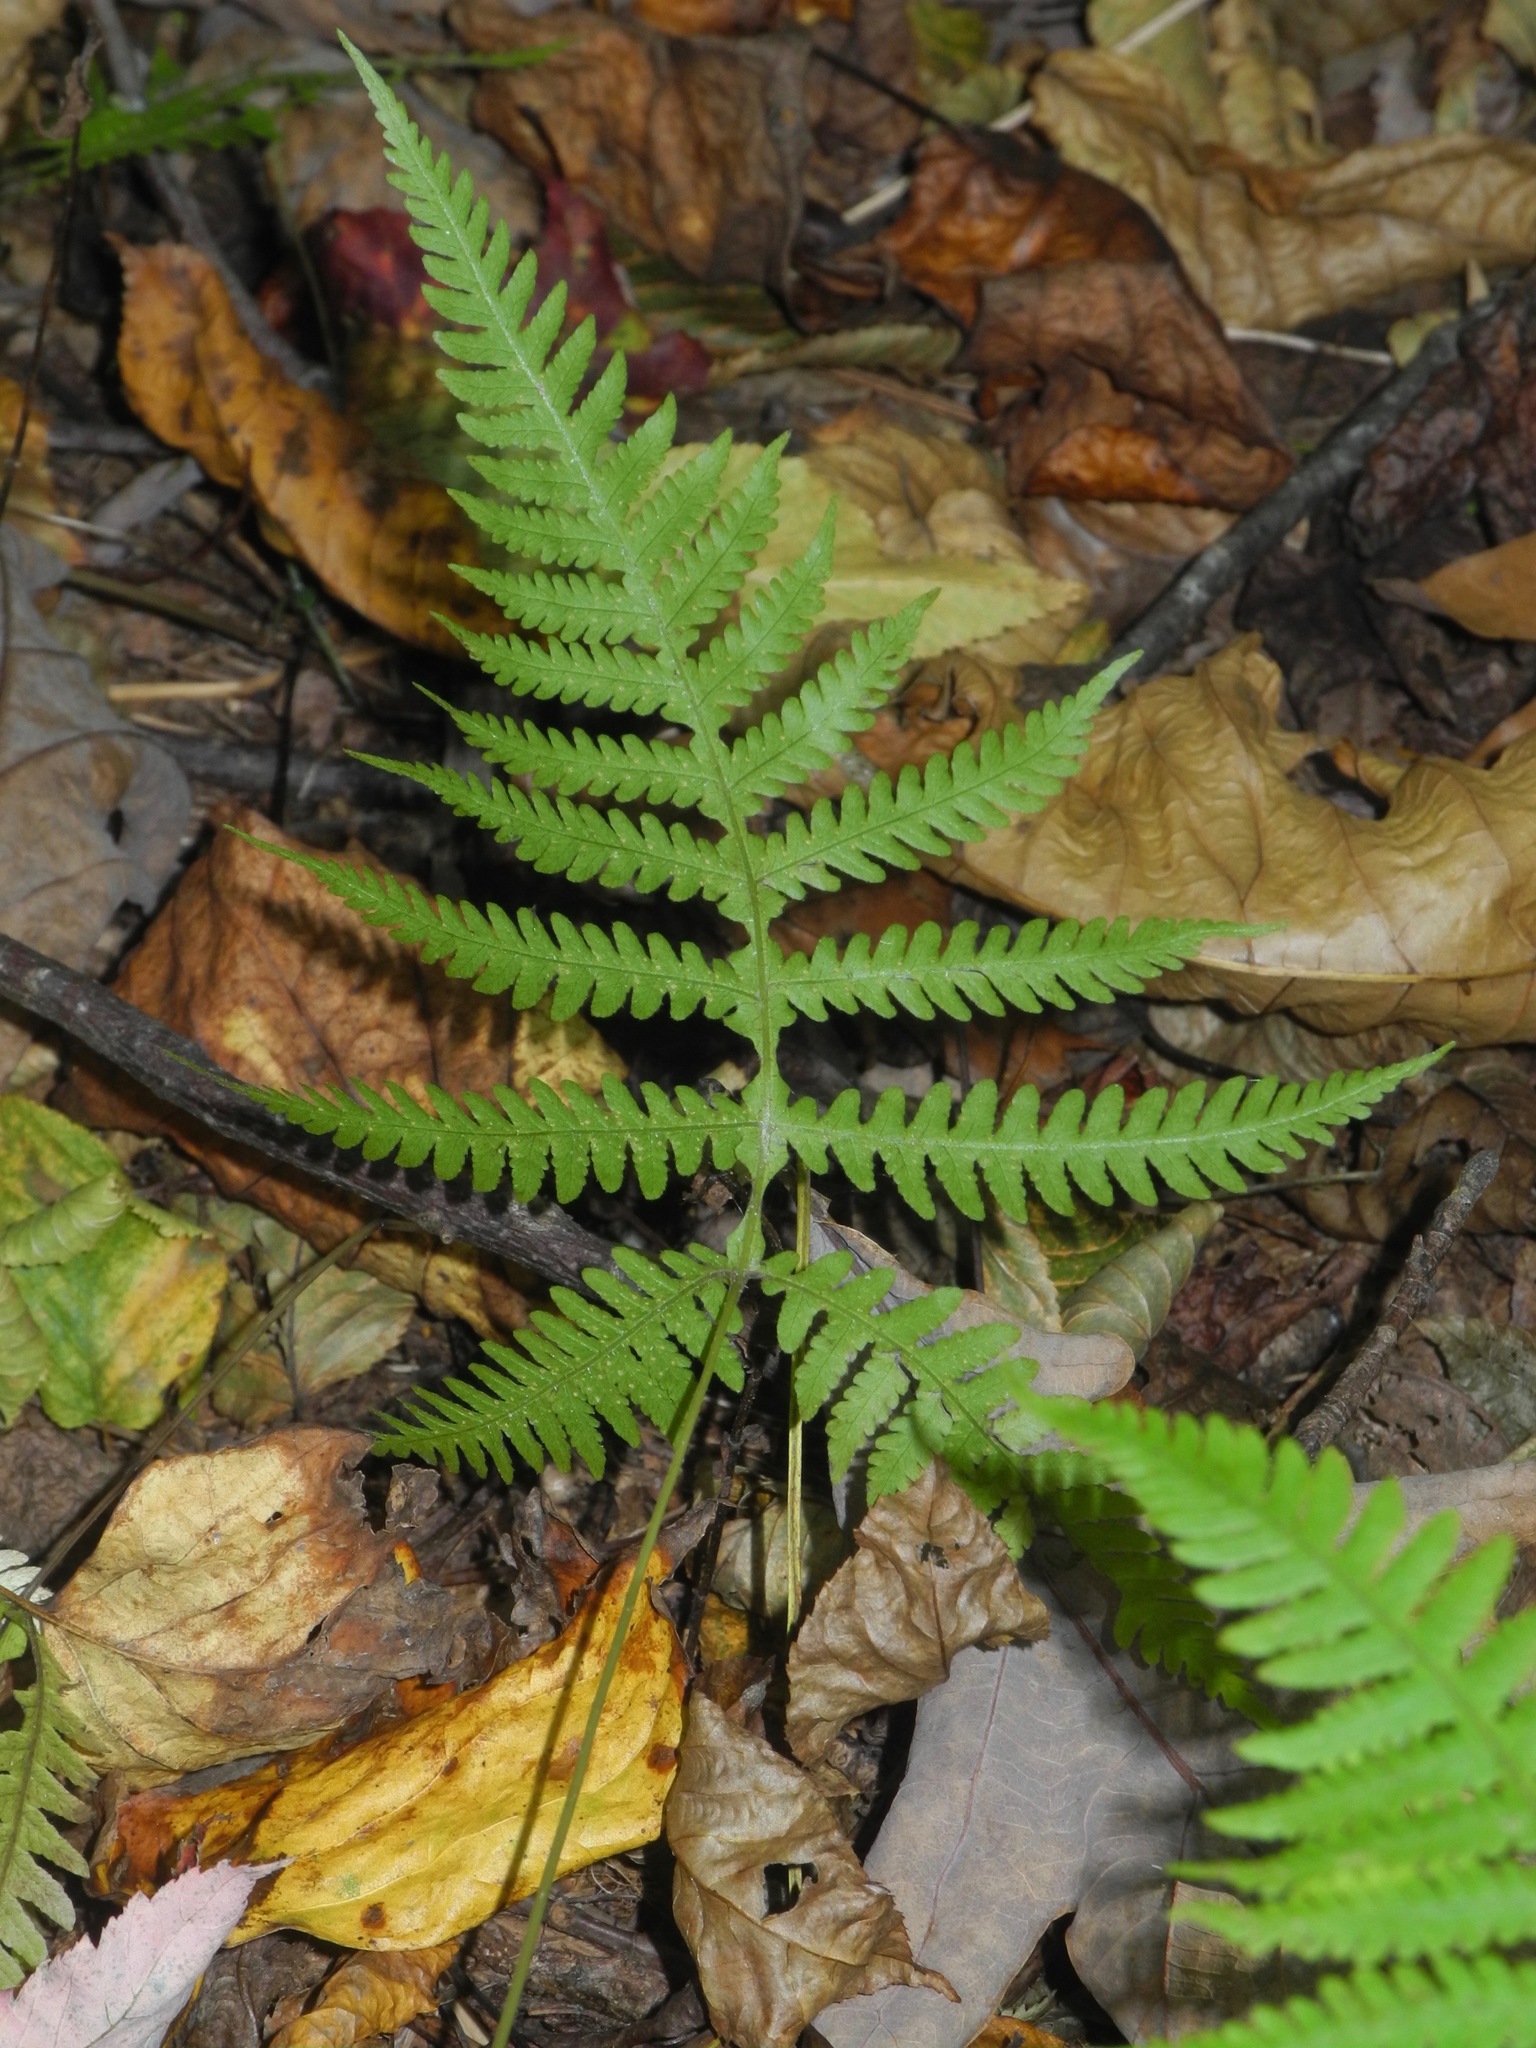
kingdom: Plantae
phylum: Tracheophyta
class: Polypodiopsida
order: Polypodiales
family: Thelypteridaceae
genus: Phegopteris
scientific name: Phegopteris hexagonoptera
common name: Broad beech fern
